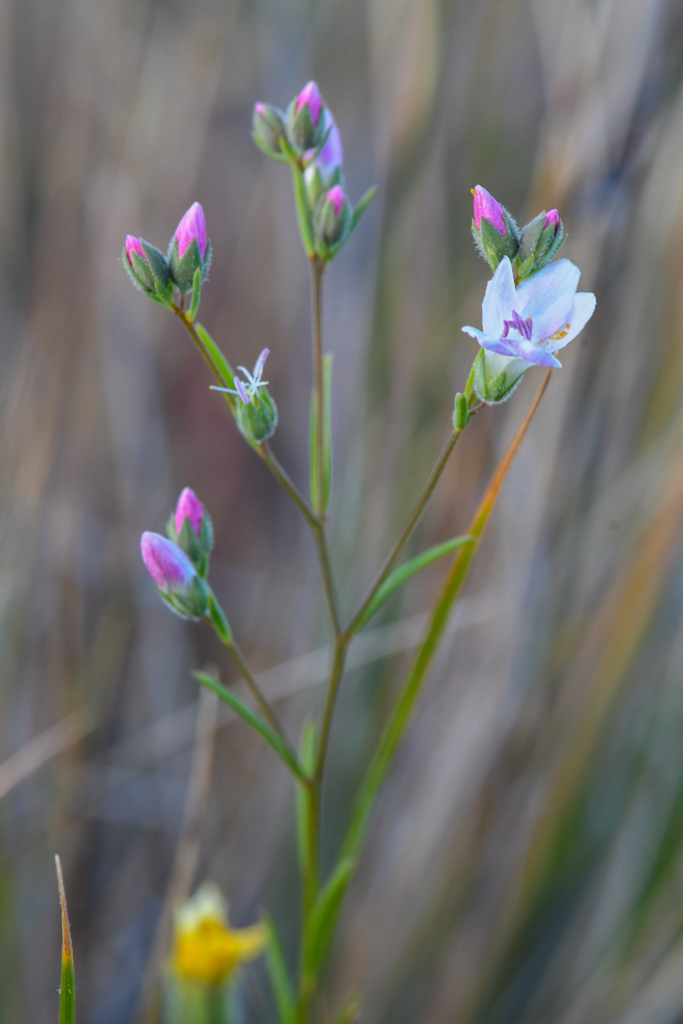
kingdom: Plantae
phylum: Tracheophyta
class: Magnoliopsida
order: Malpighiales
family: Linaceae
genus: Hesperolinon
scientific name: Hesperolinon congestum
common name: Marin dwarf-flax
